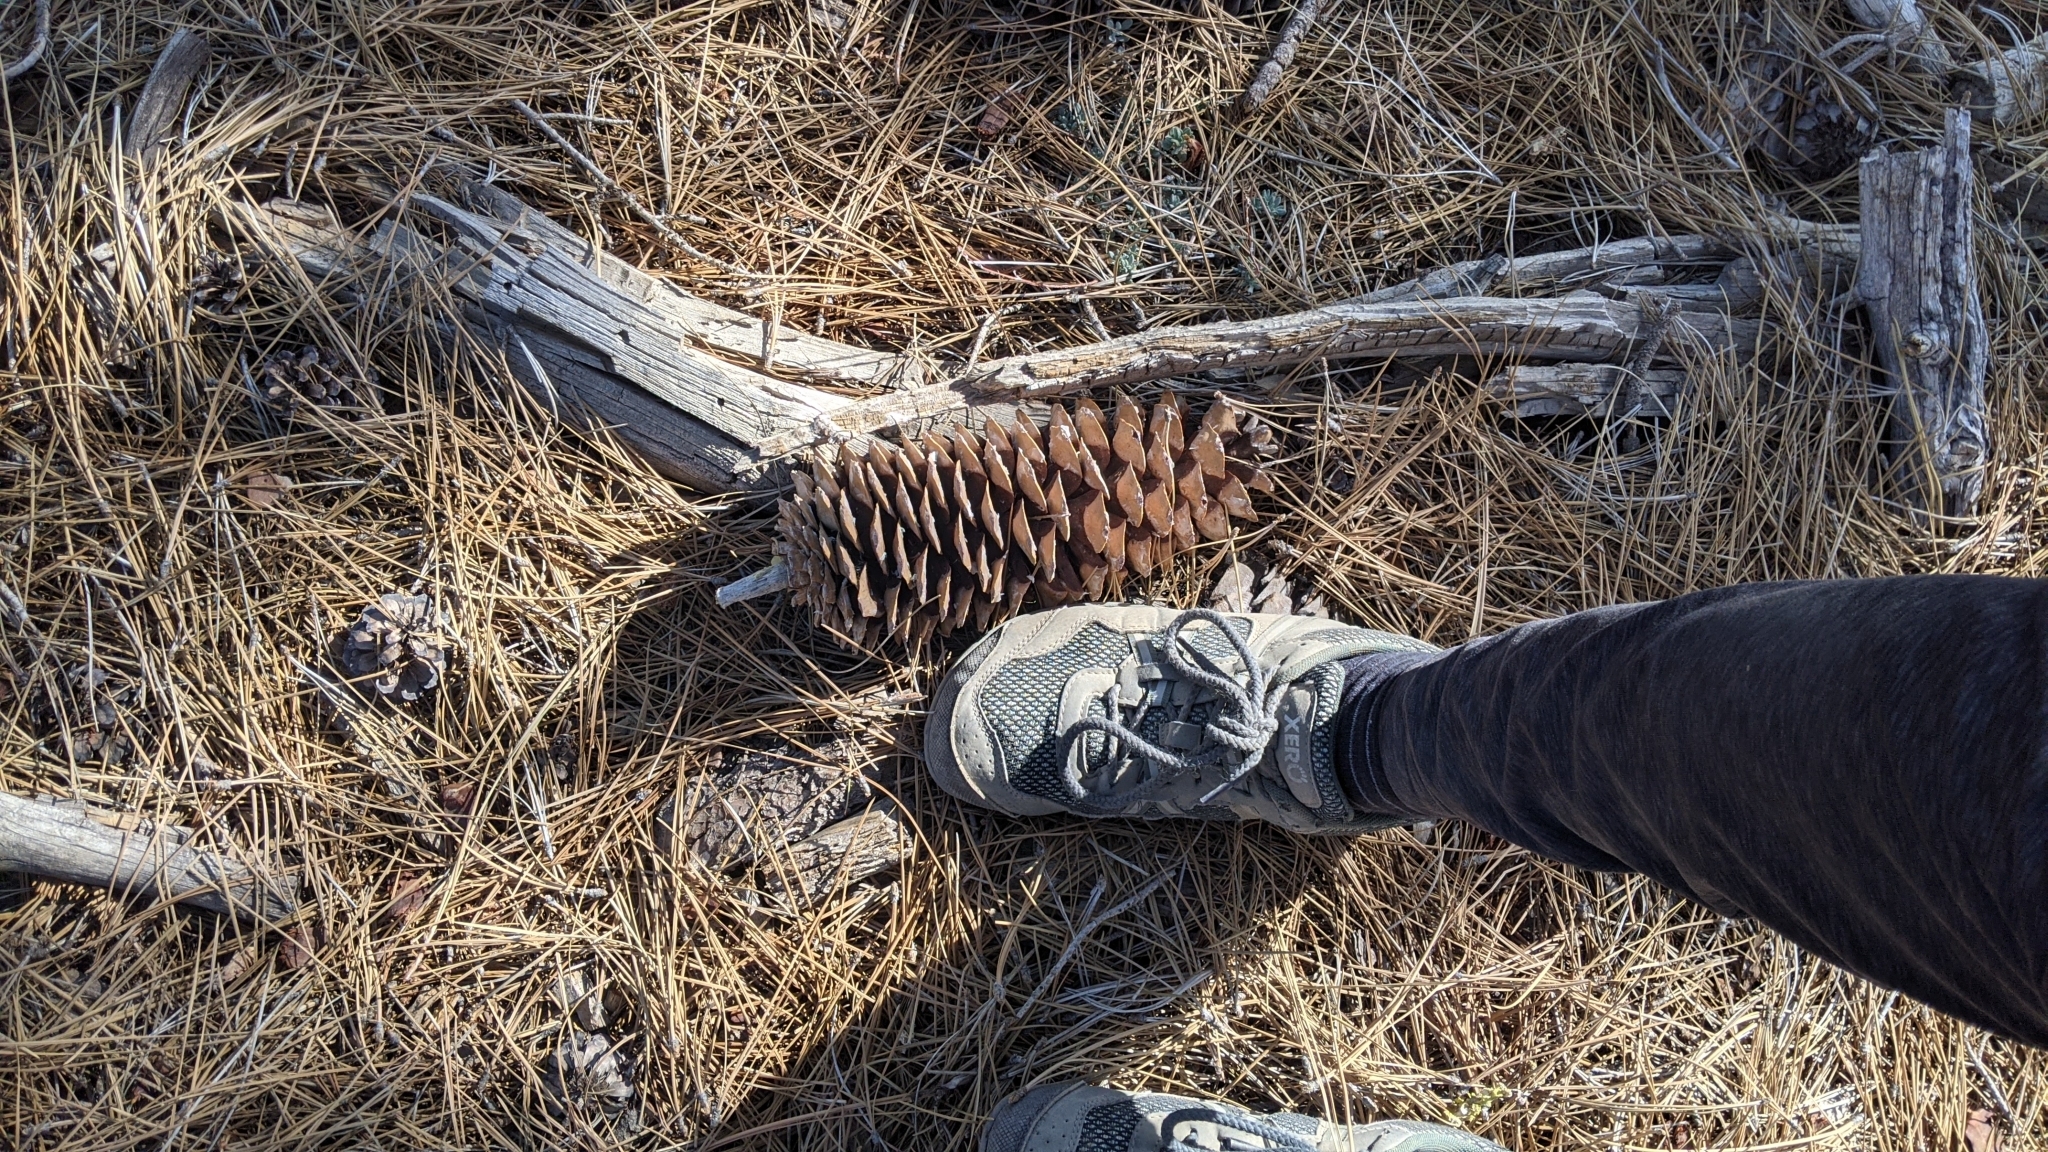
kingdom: Plantae
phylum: Tracheophyta
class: Pinopsida
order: Pinales
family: Pinaceae
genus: Pinus
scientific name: Pinus lambertiana
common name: Sugar pine
